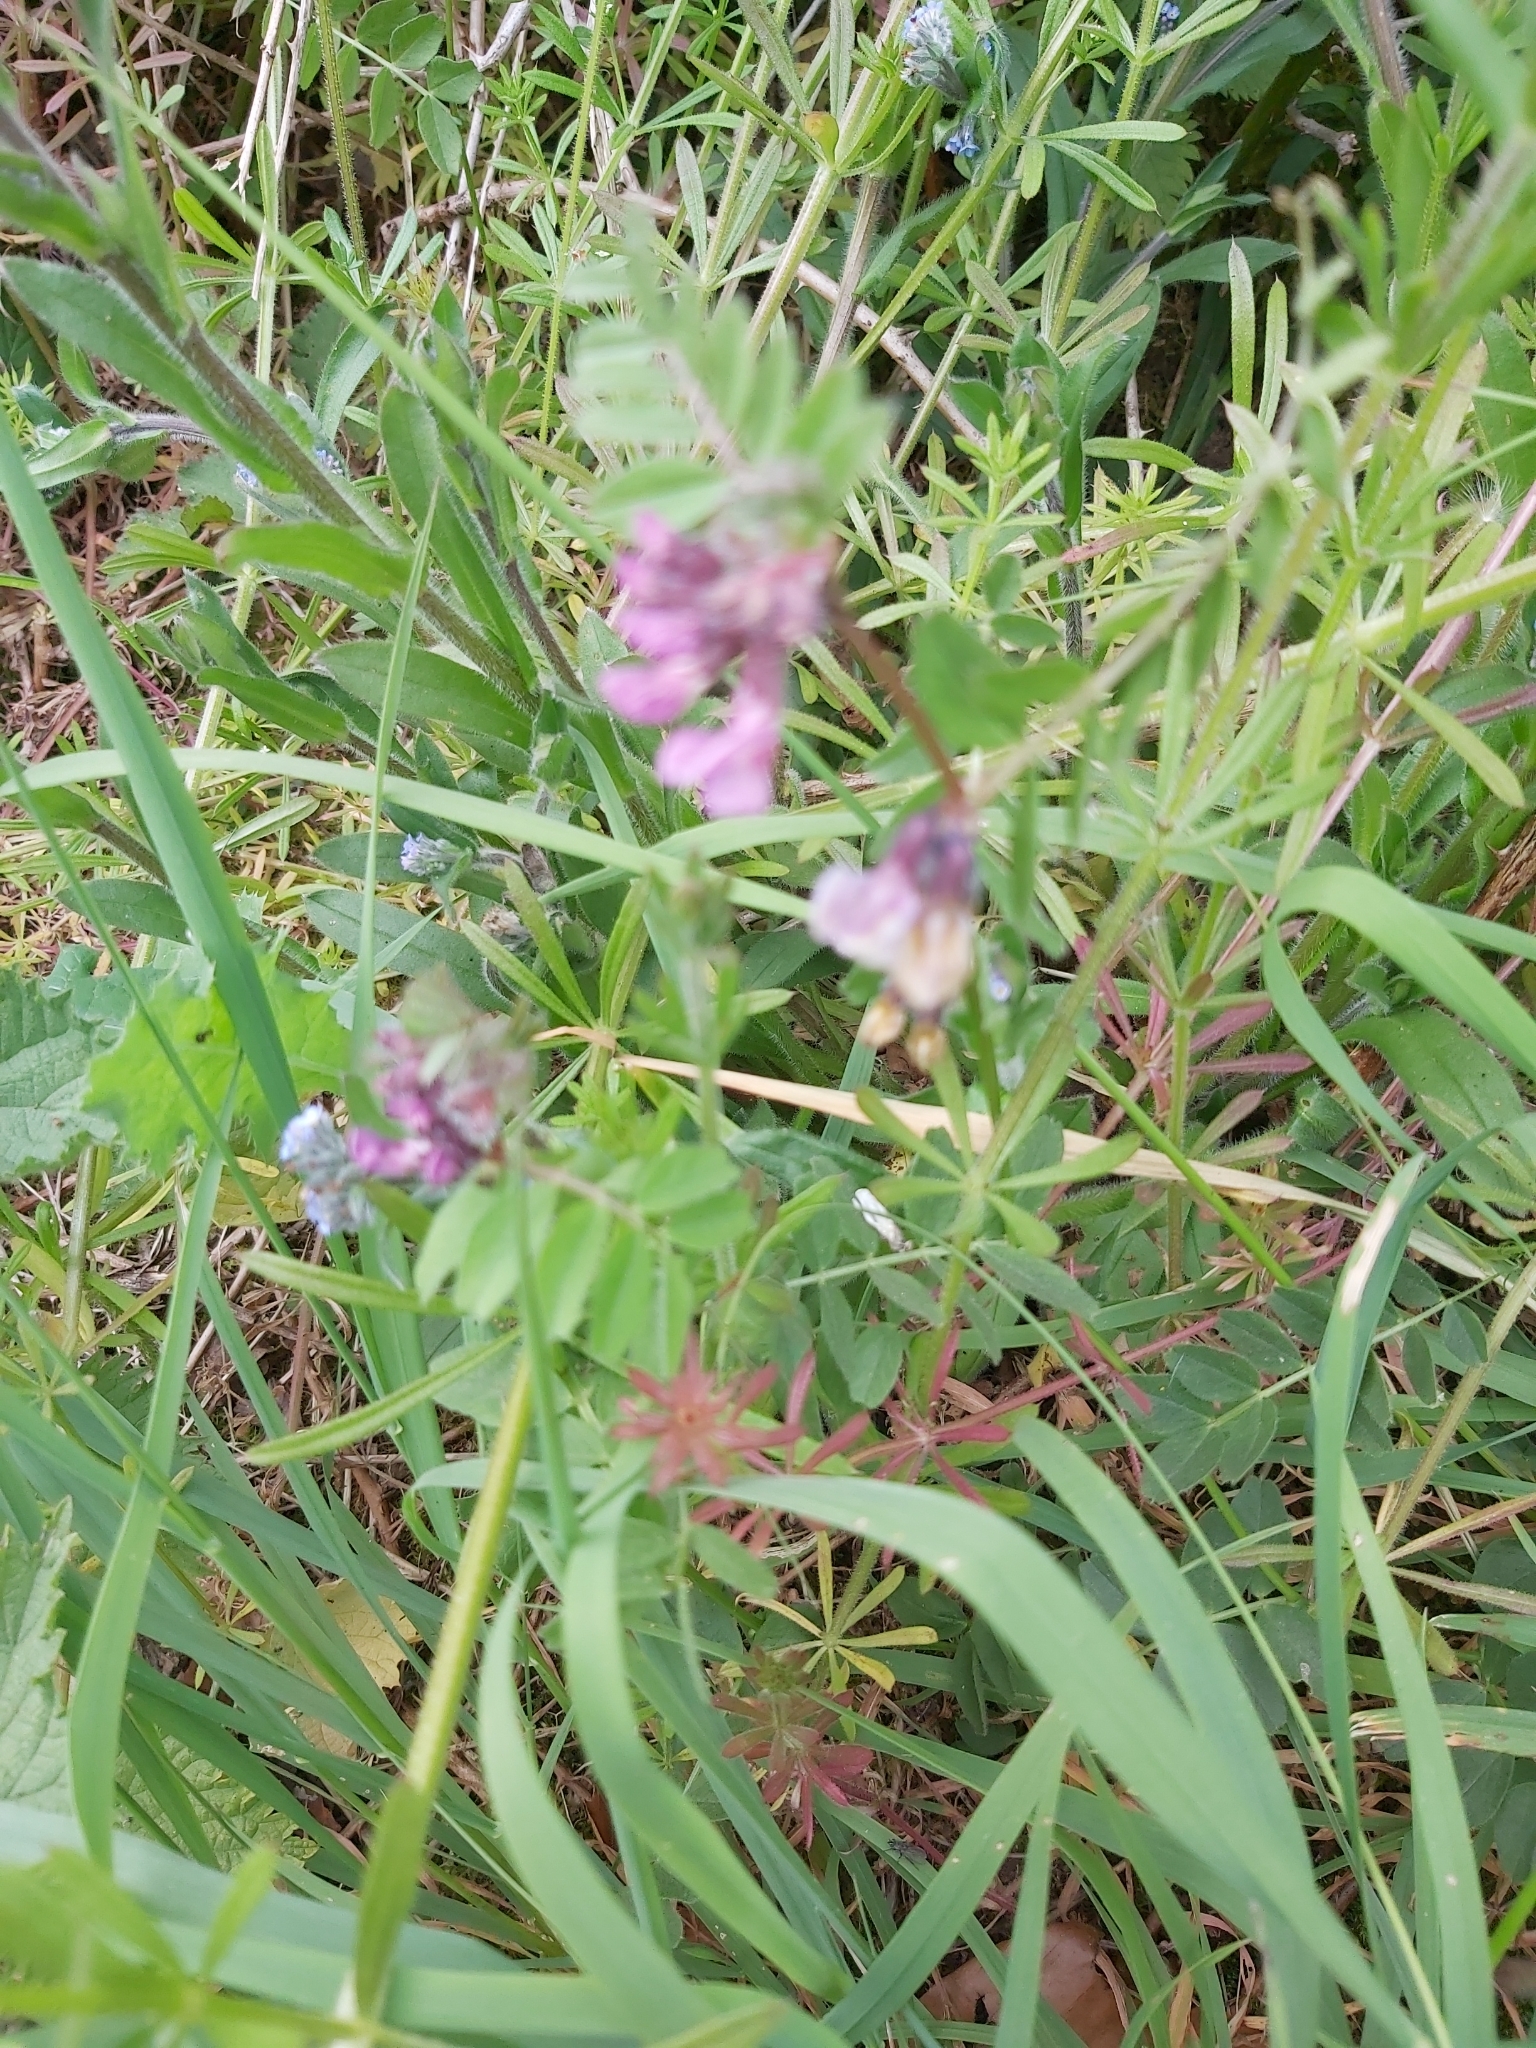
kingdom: Plantae
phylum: Tracheophyta
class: Magnoliopsida
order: Fabales
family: Fabaceae
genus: Vicia
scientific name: Vicia sepium
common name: Bush vetch
